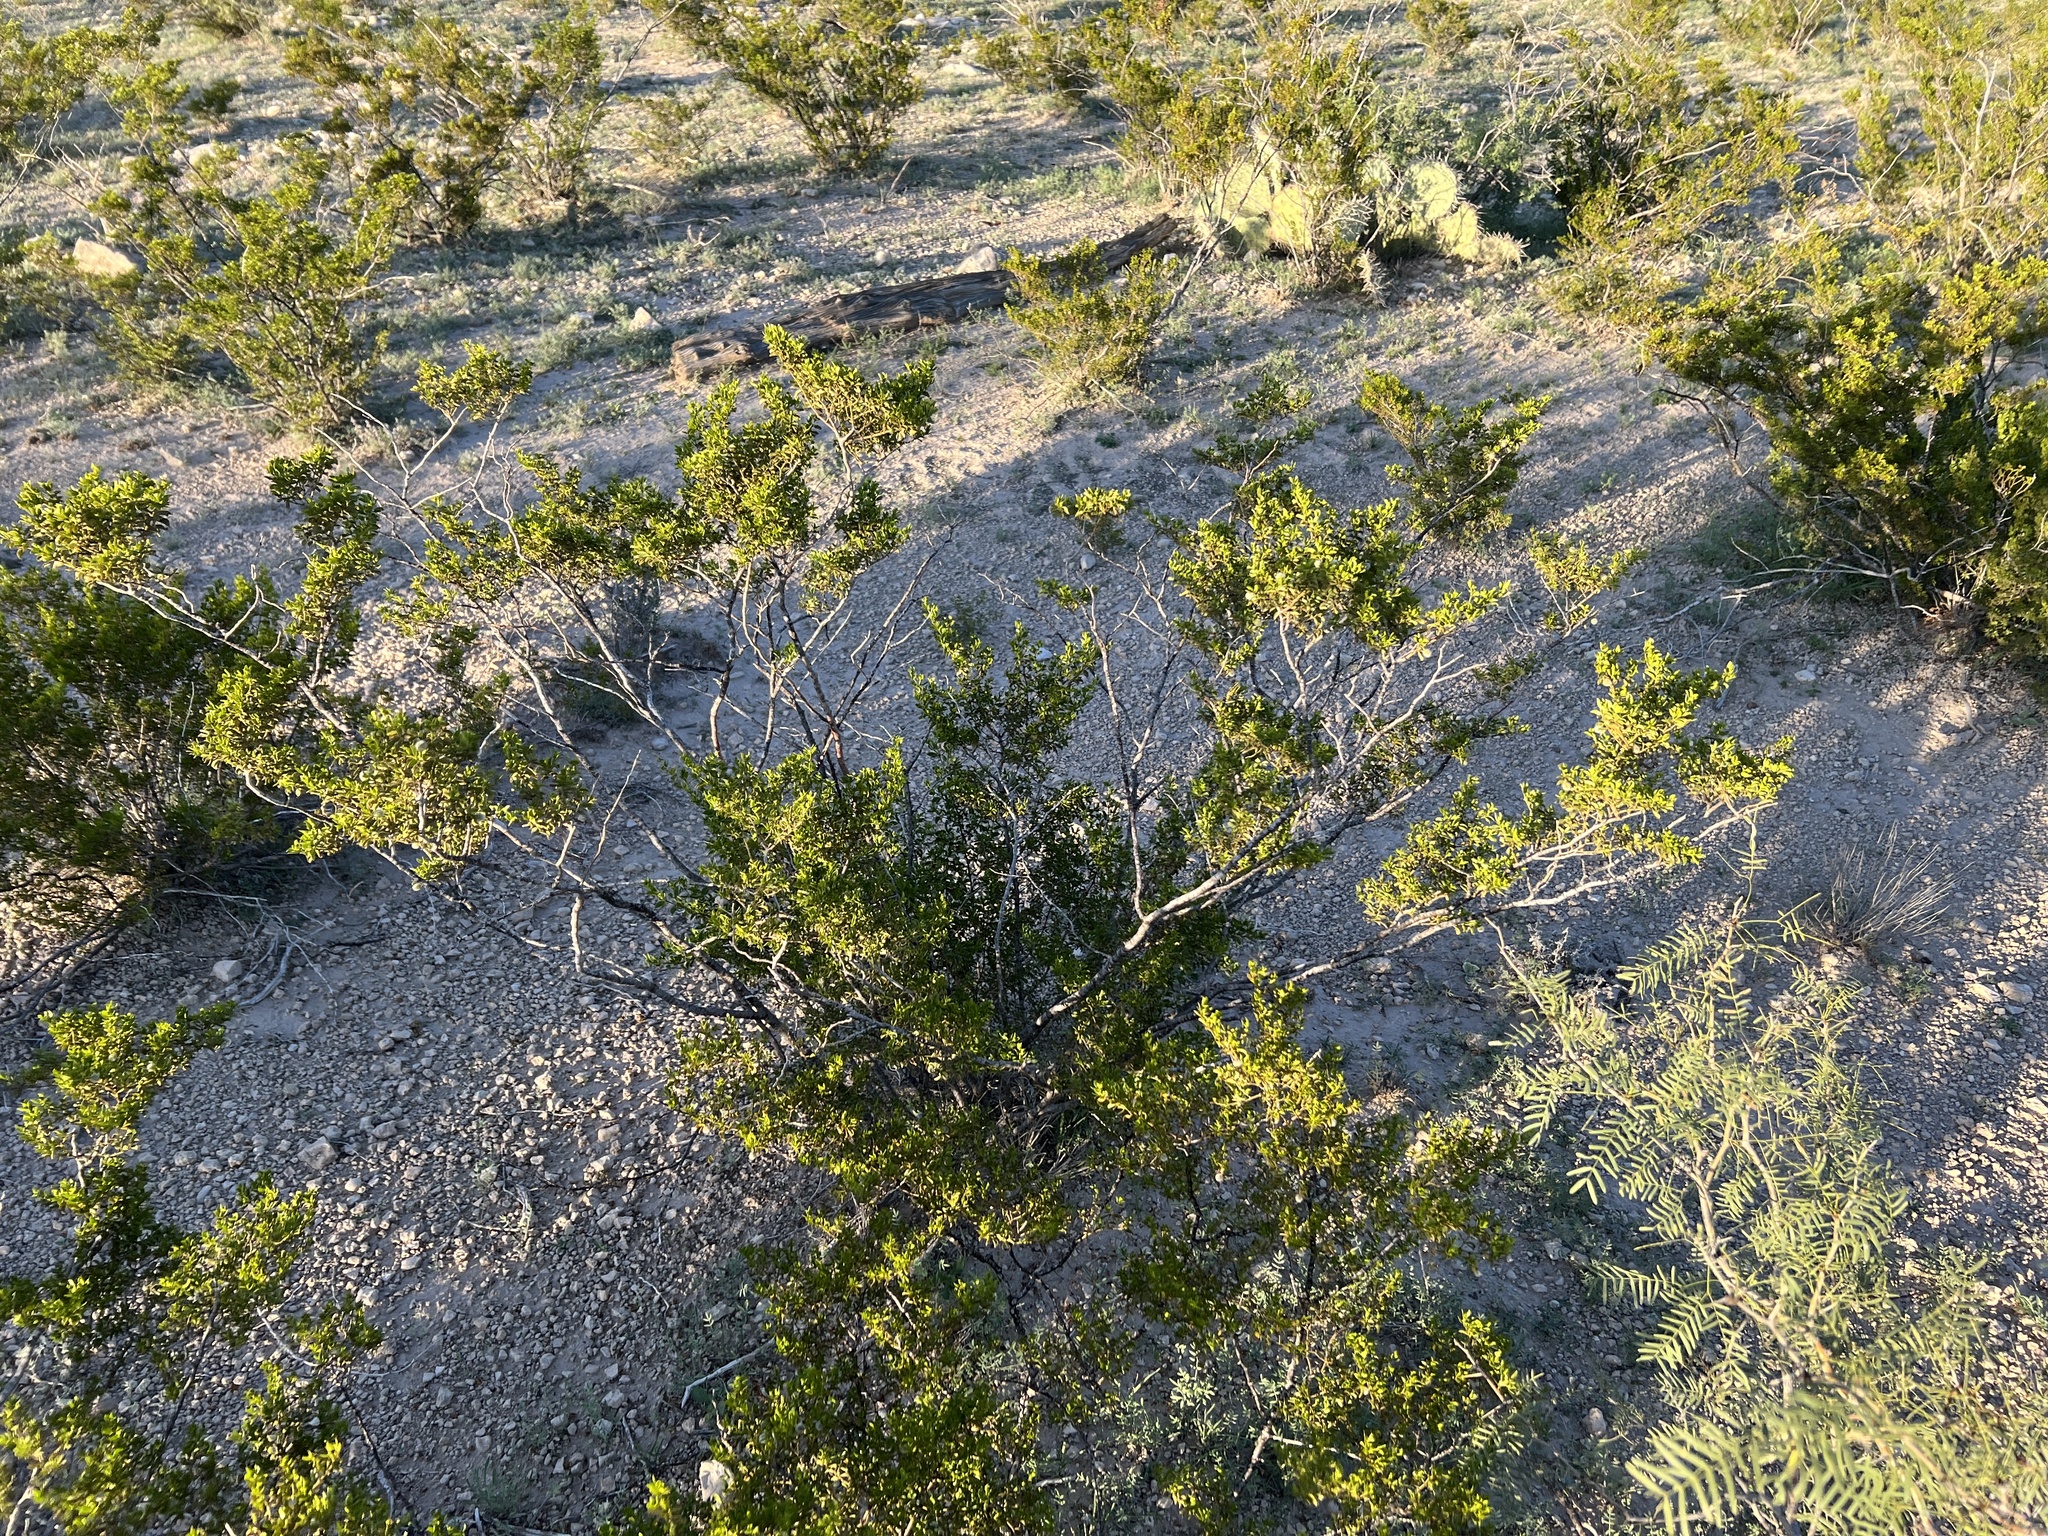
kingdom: Plantae
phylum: Tracheophyta
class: Magnoliopsida
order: Zygophyllales
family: Zygophyllaceae
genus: Larrea
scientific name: Larrea tridentata
